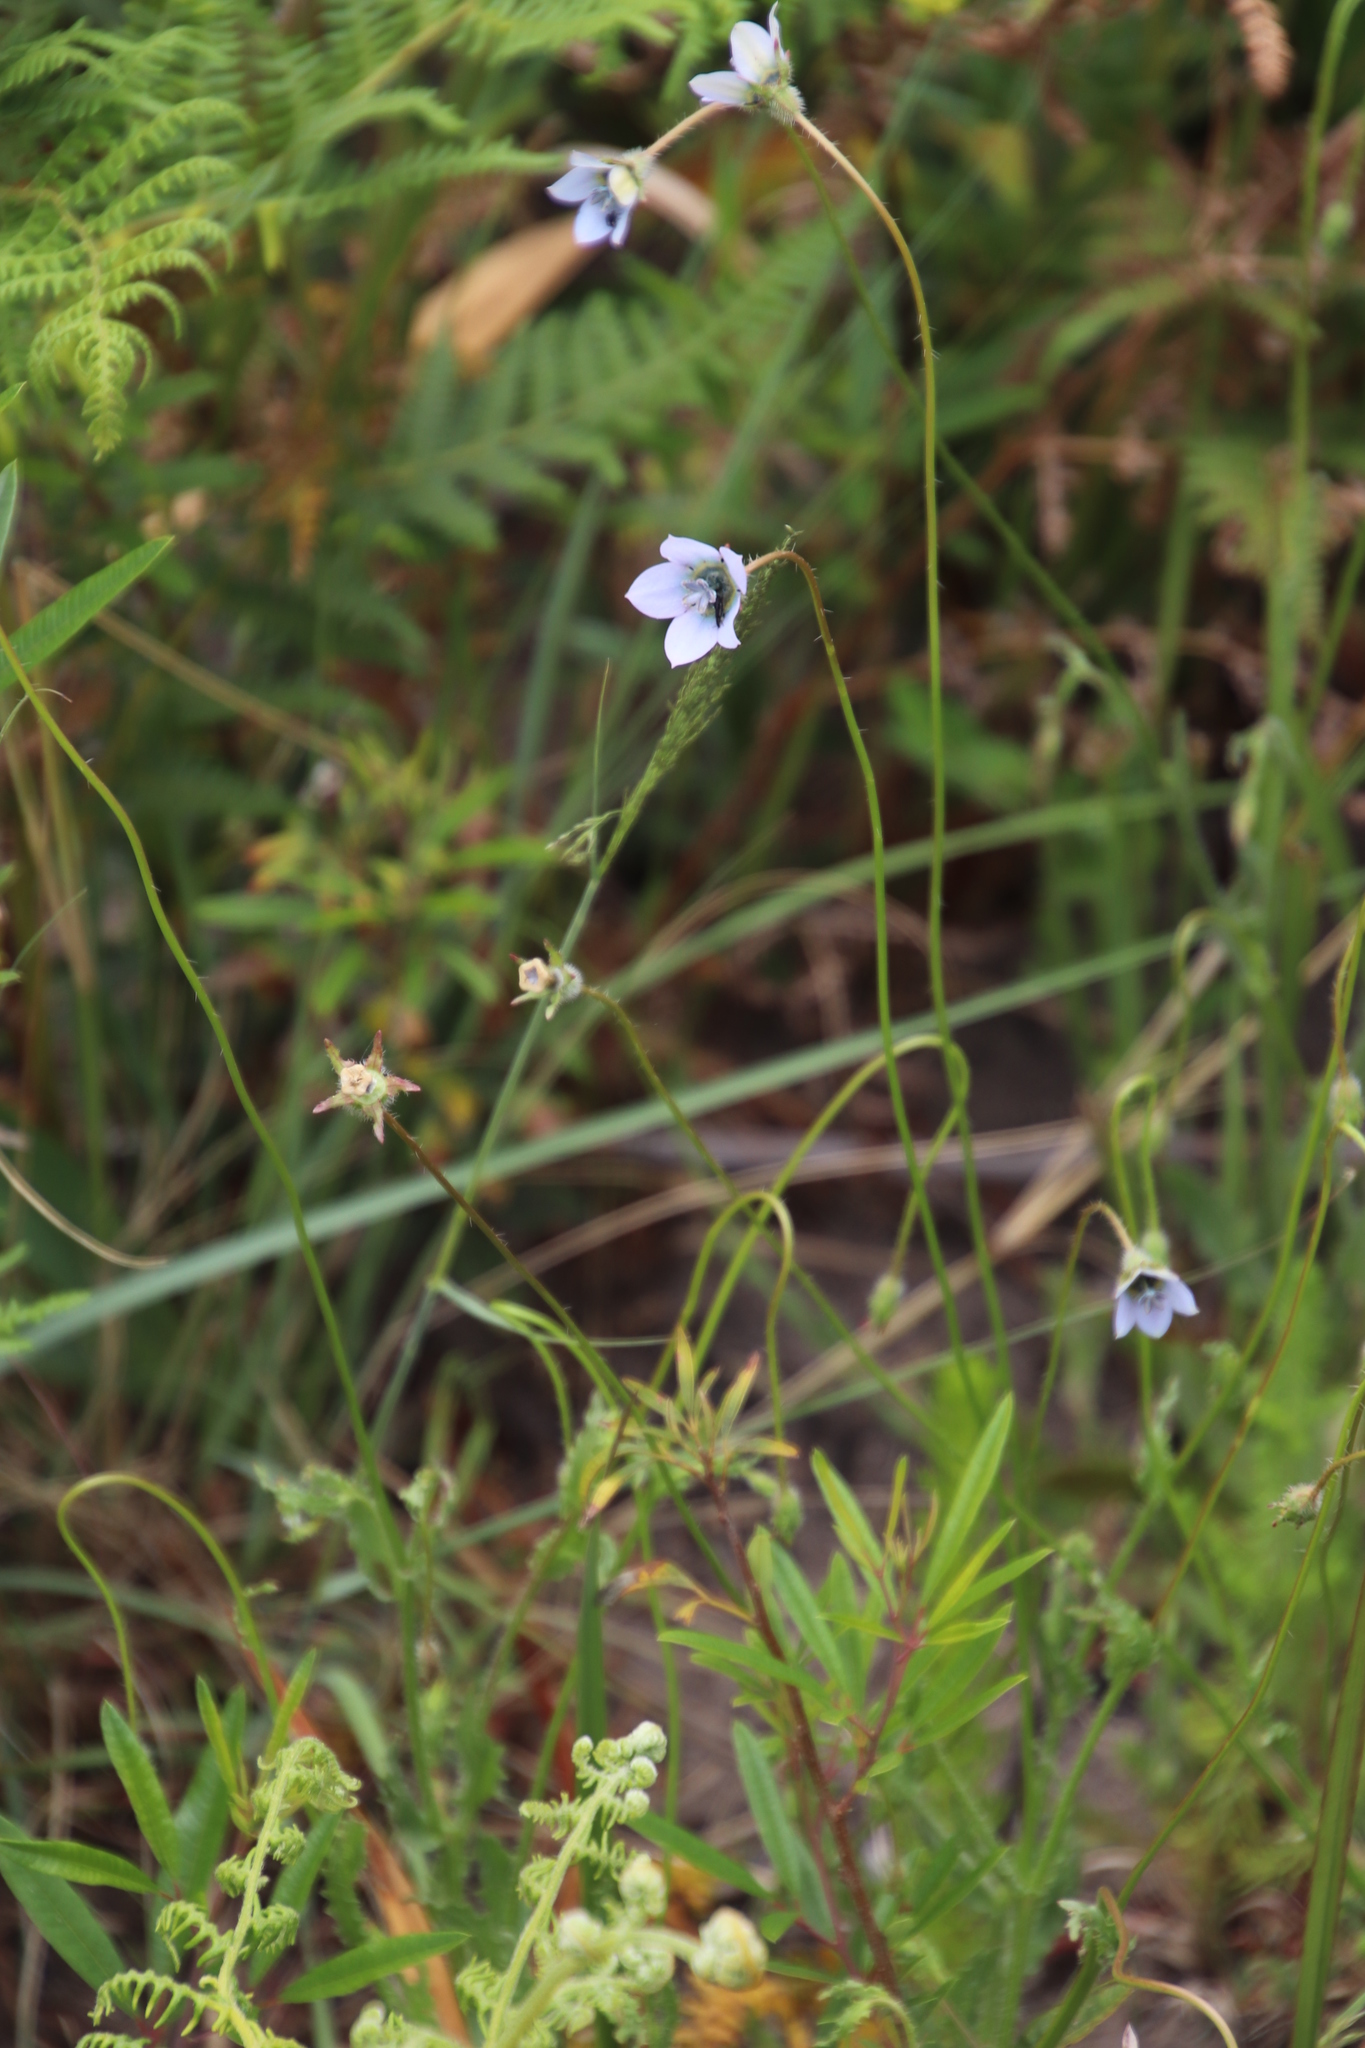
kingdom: Plantae
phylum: Tracheophyta
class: Magnoliopsida
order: Asterales
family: Campanulaceae
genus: Wahlenbergia
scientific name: Wahlenbergia capensis
